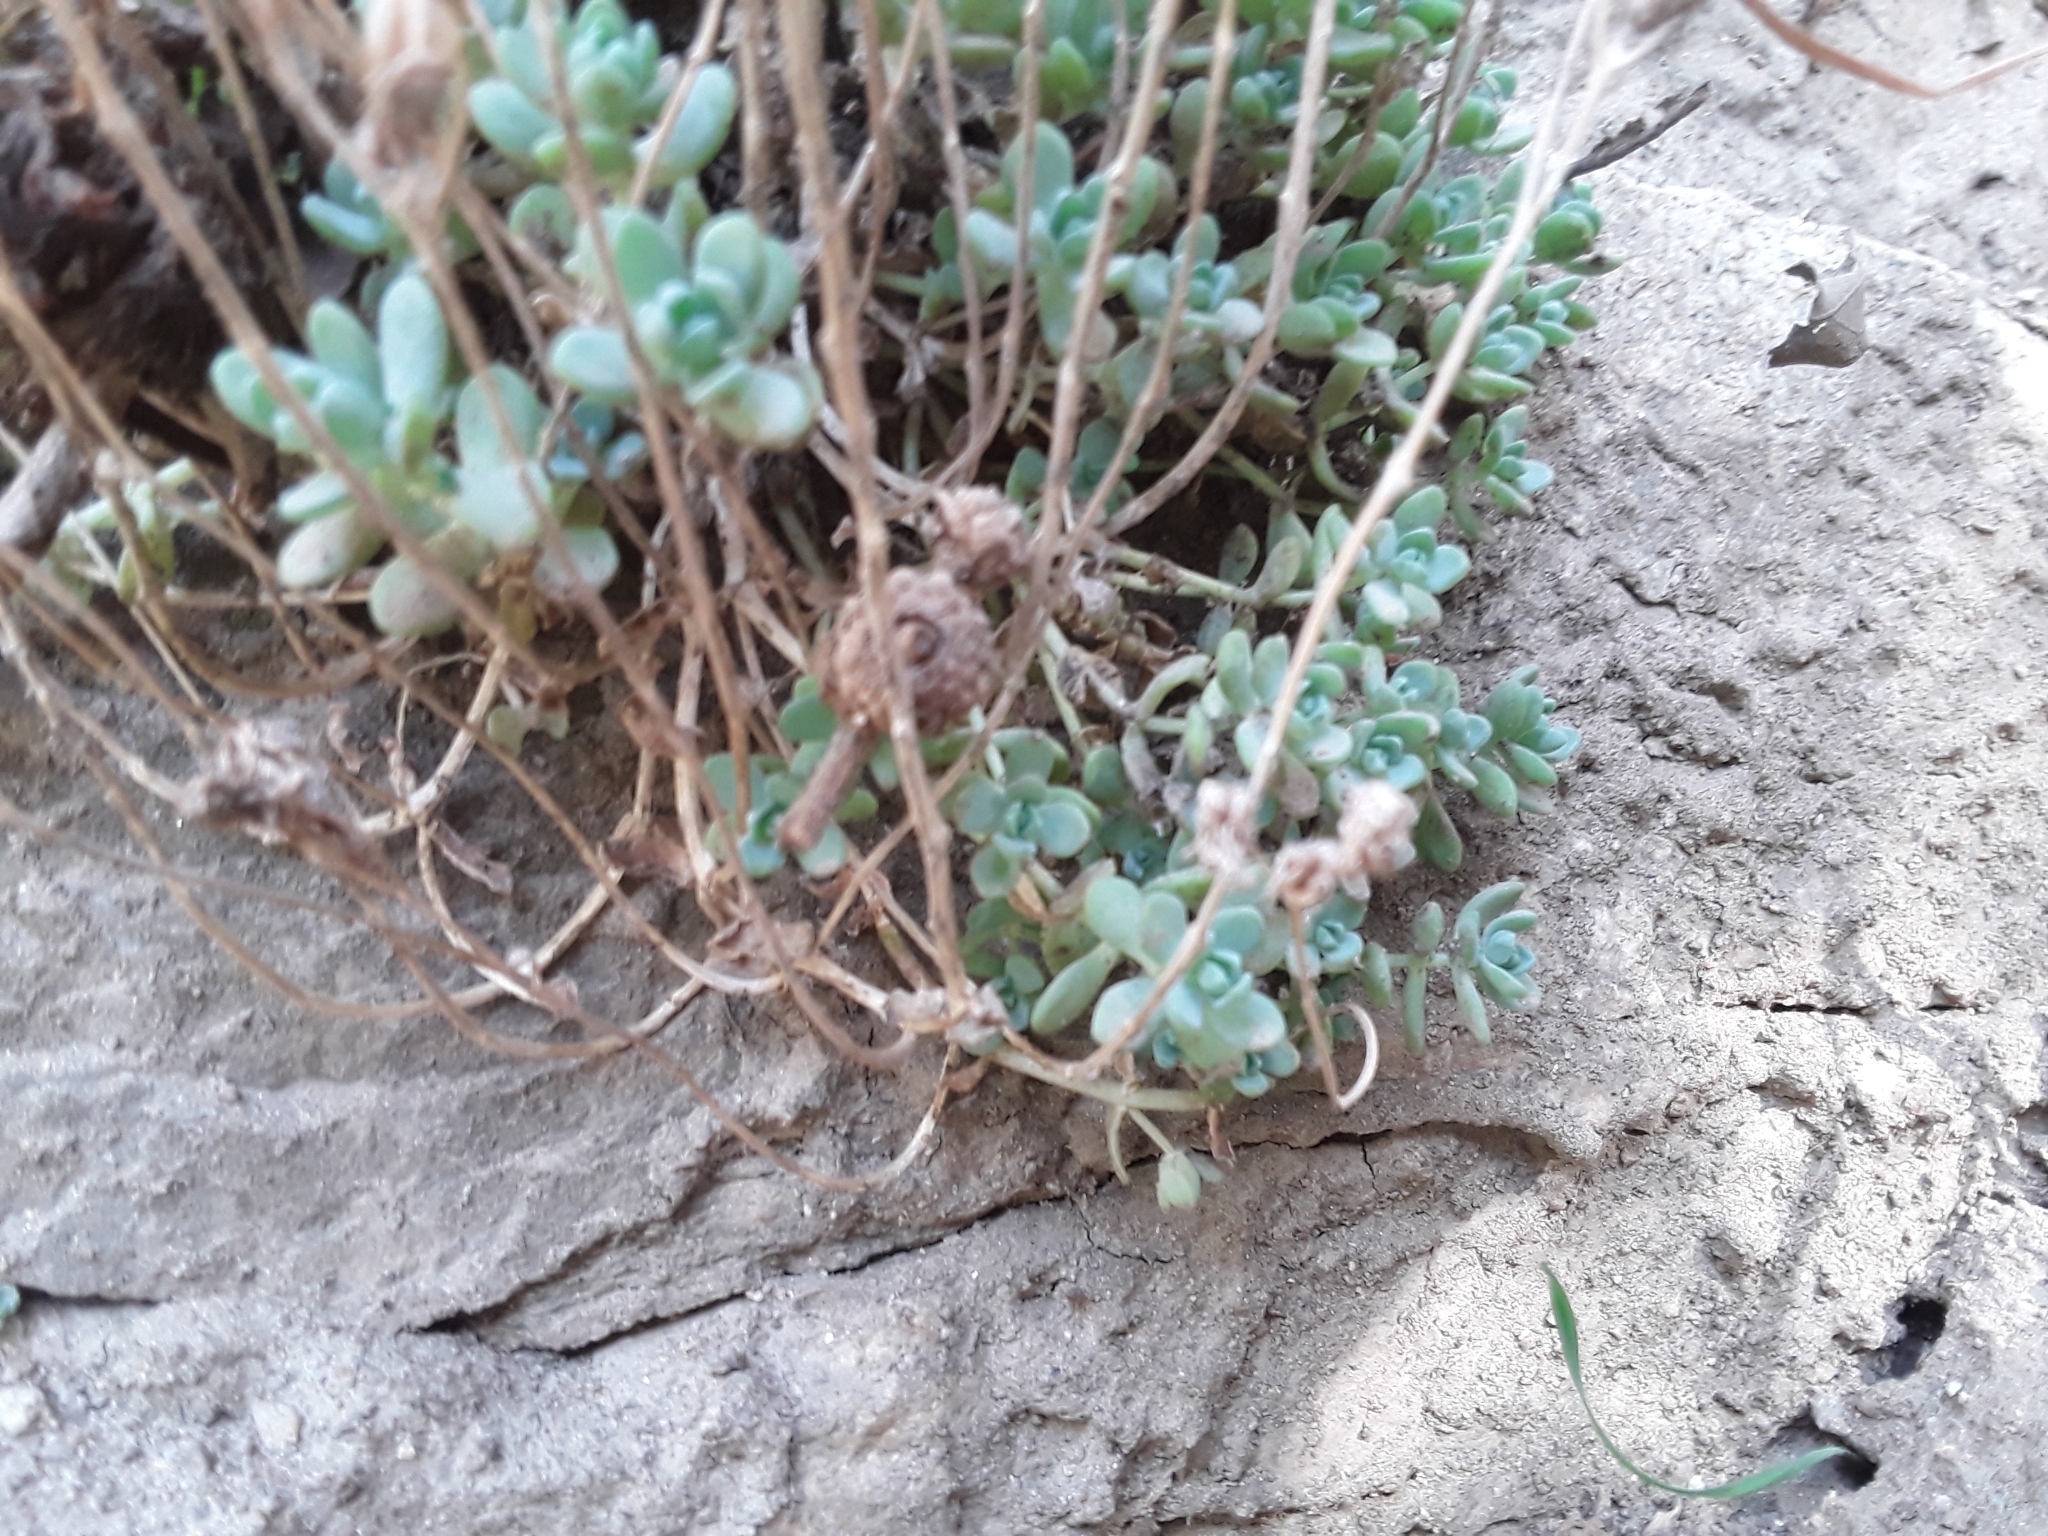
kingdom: Plantae
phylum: Tracheophyta
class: Magnoliopsida
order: Saxifragales
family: Crassulaceae
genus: Sedum
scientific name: Sedum debile
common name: Weak-stem stonecrop
